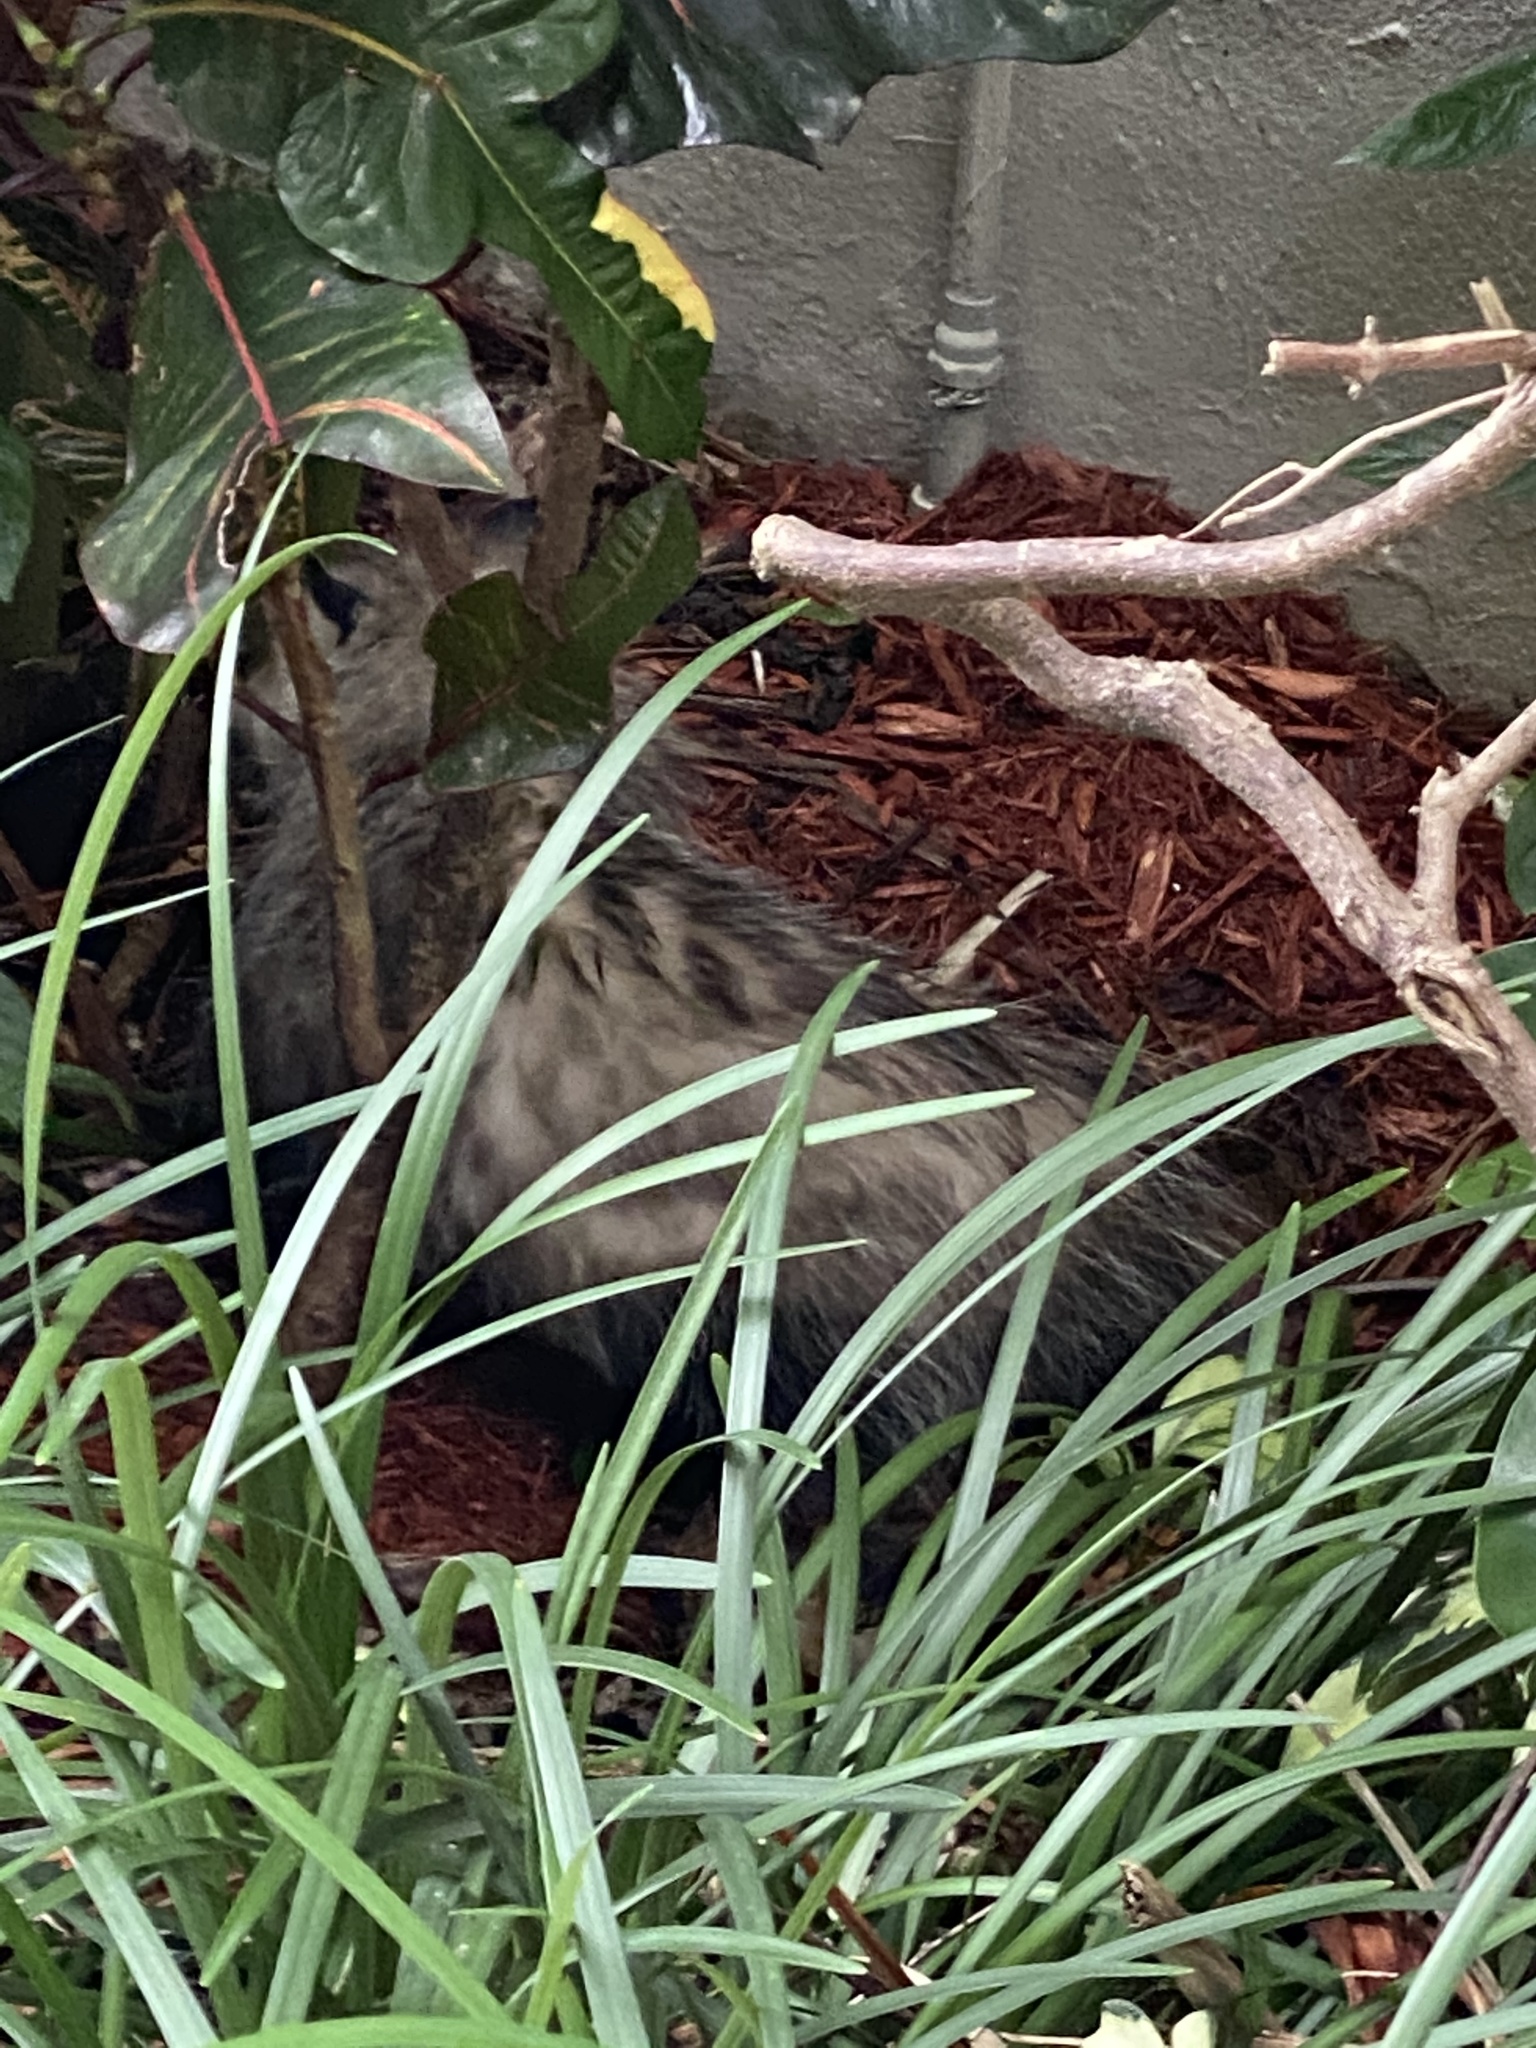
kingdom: Animalia
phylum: Chordata
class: Mammalia
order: Didelphimorphia
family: Didelphidae
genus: Didelphis
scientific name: Didelphis virginiana
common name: Virginia opossum
